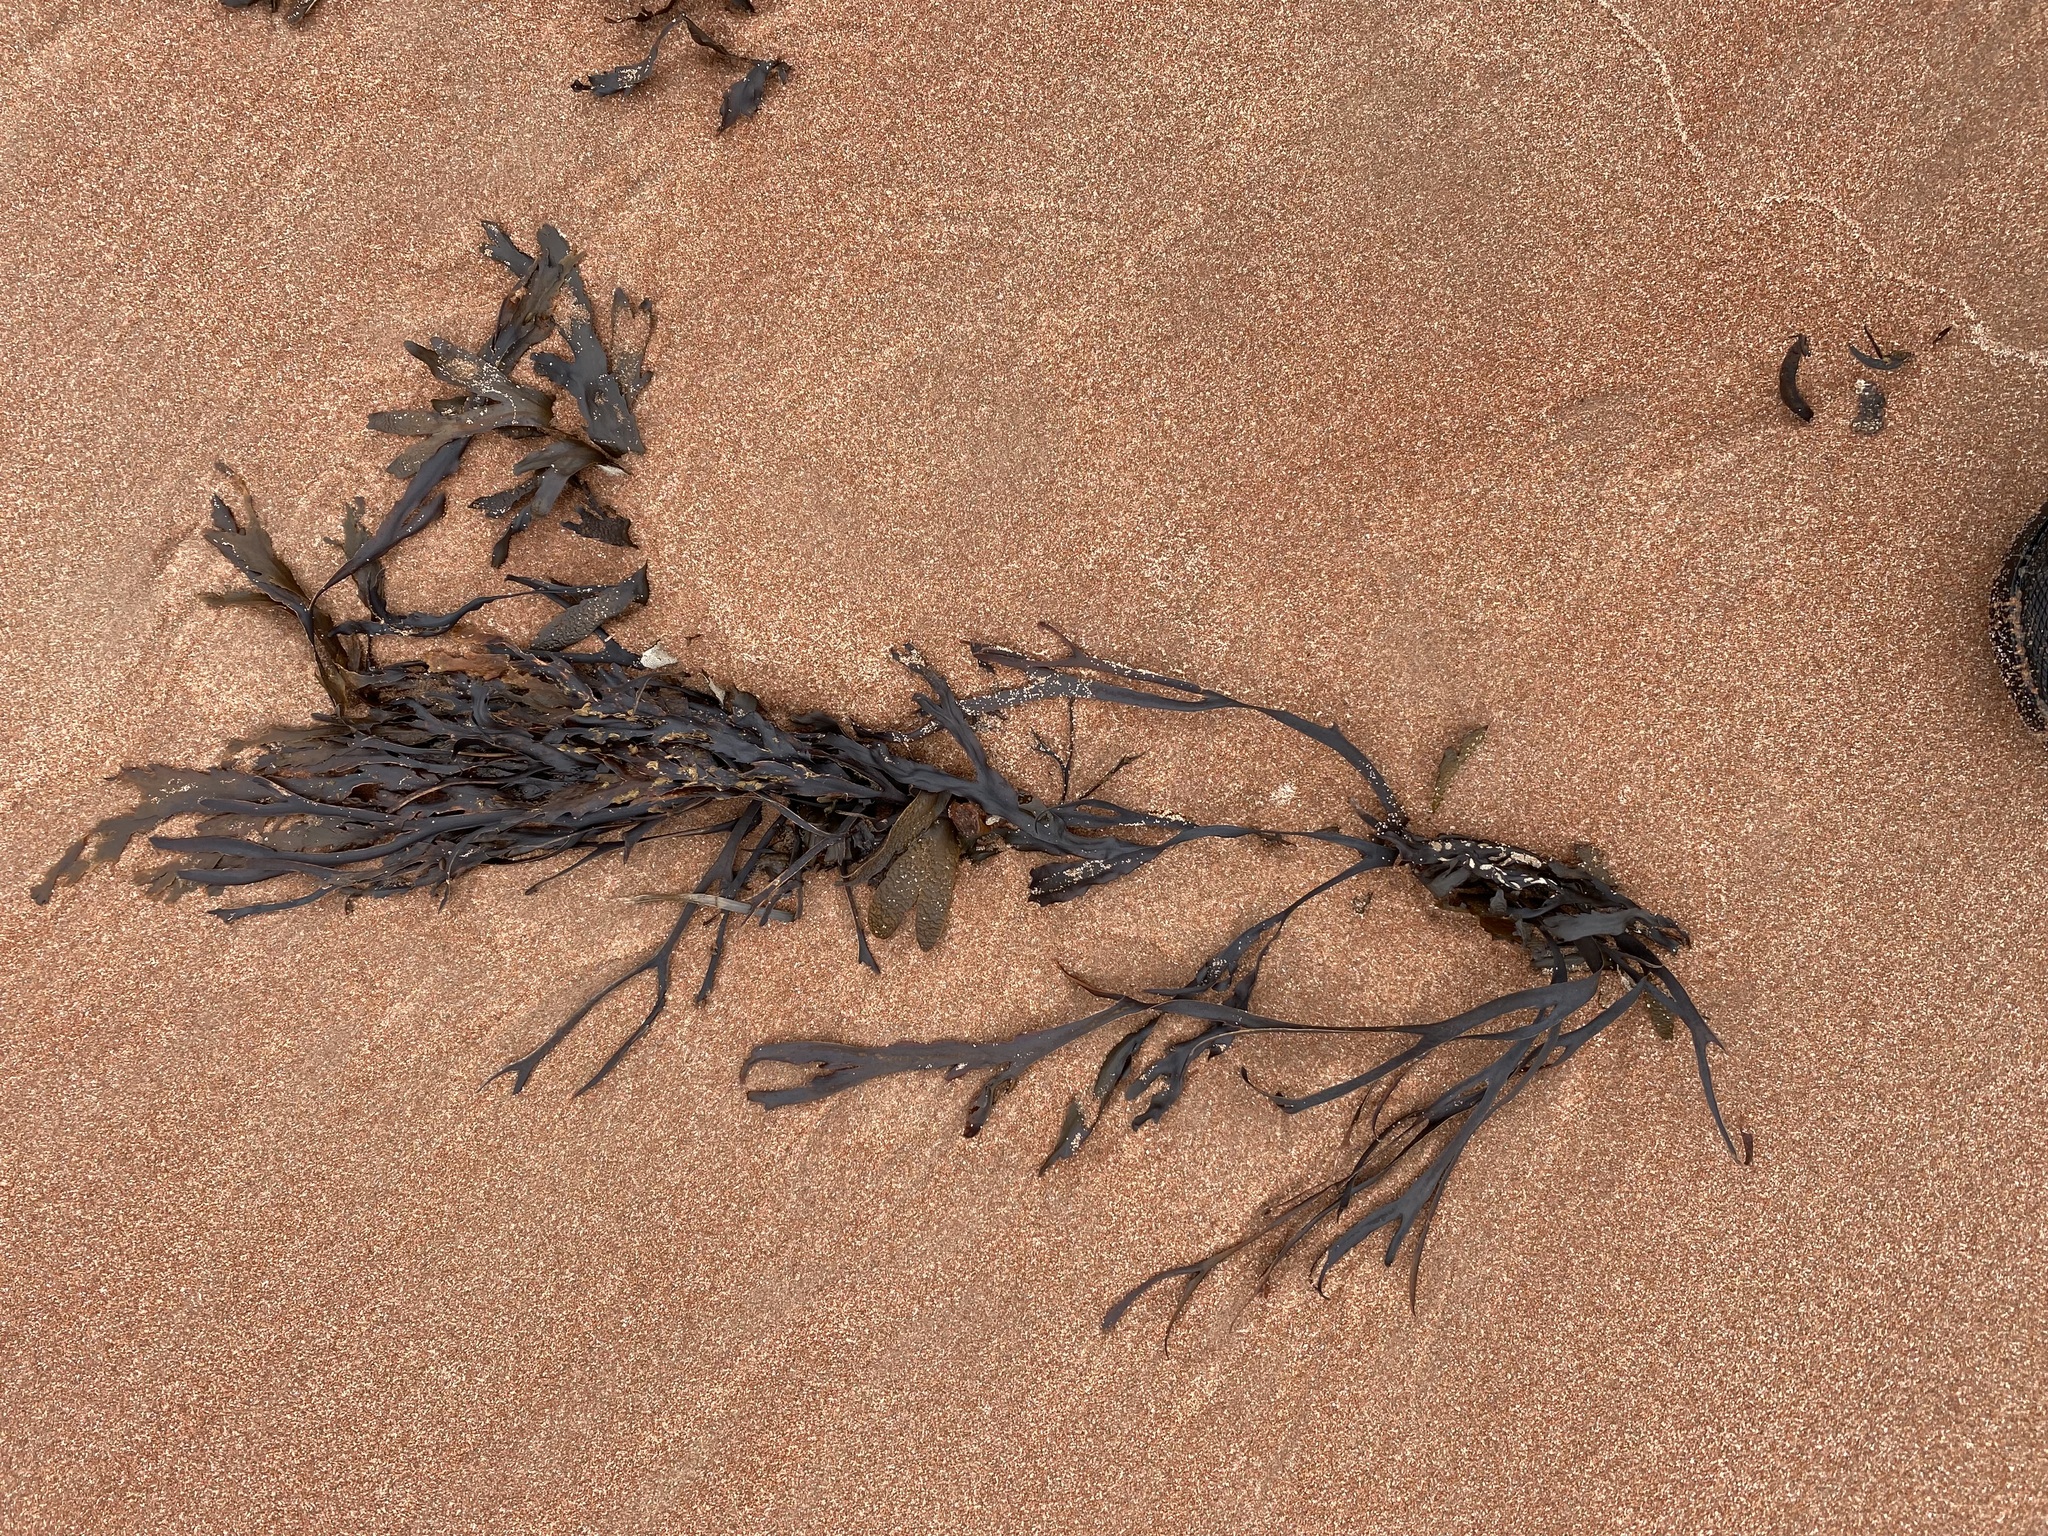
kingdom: Chromista
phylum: Ochrophyta
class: Phaeophyceae
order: Fucales
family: Fucaceae
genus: Fucus
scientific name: Fucus serratus
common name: Toothed wrack
